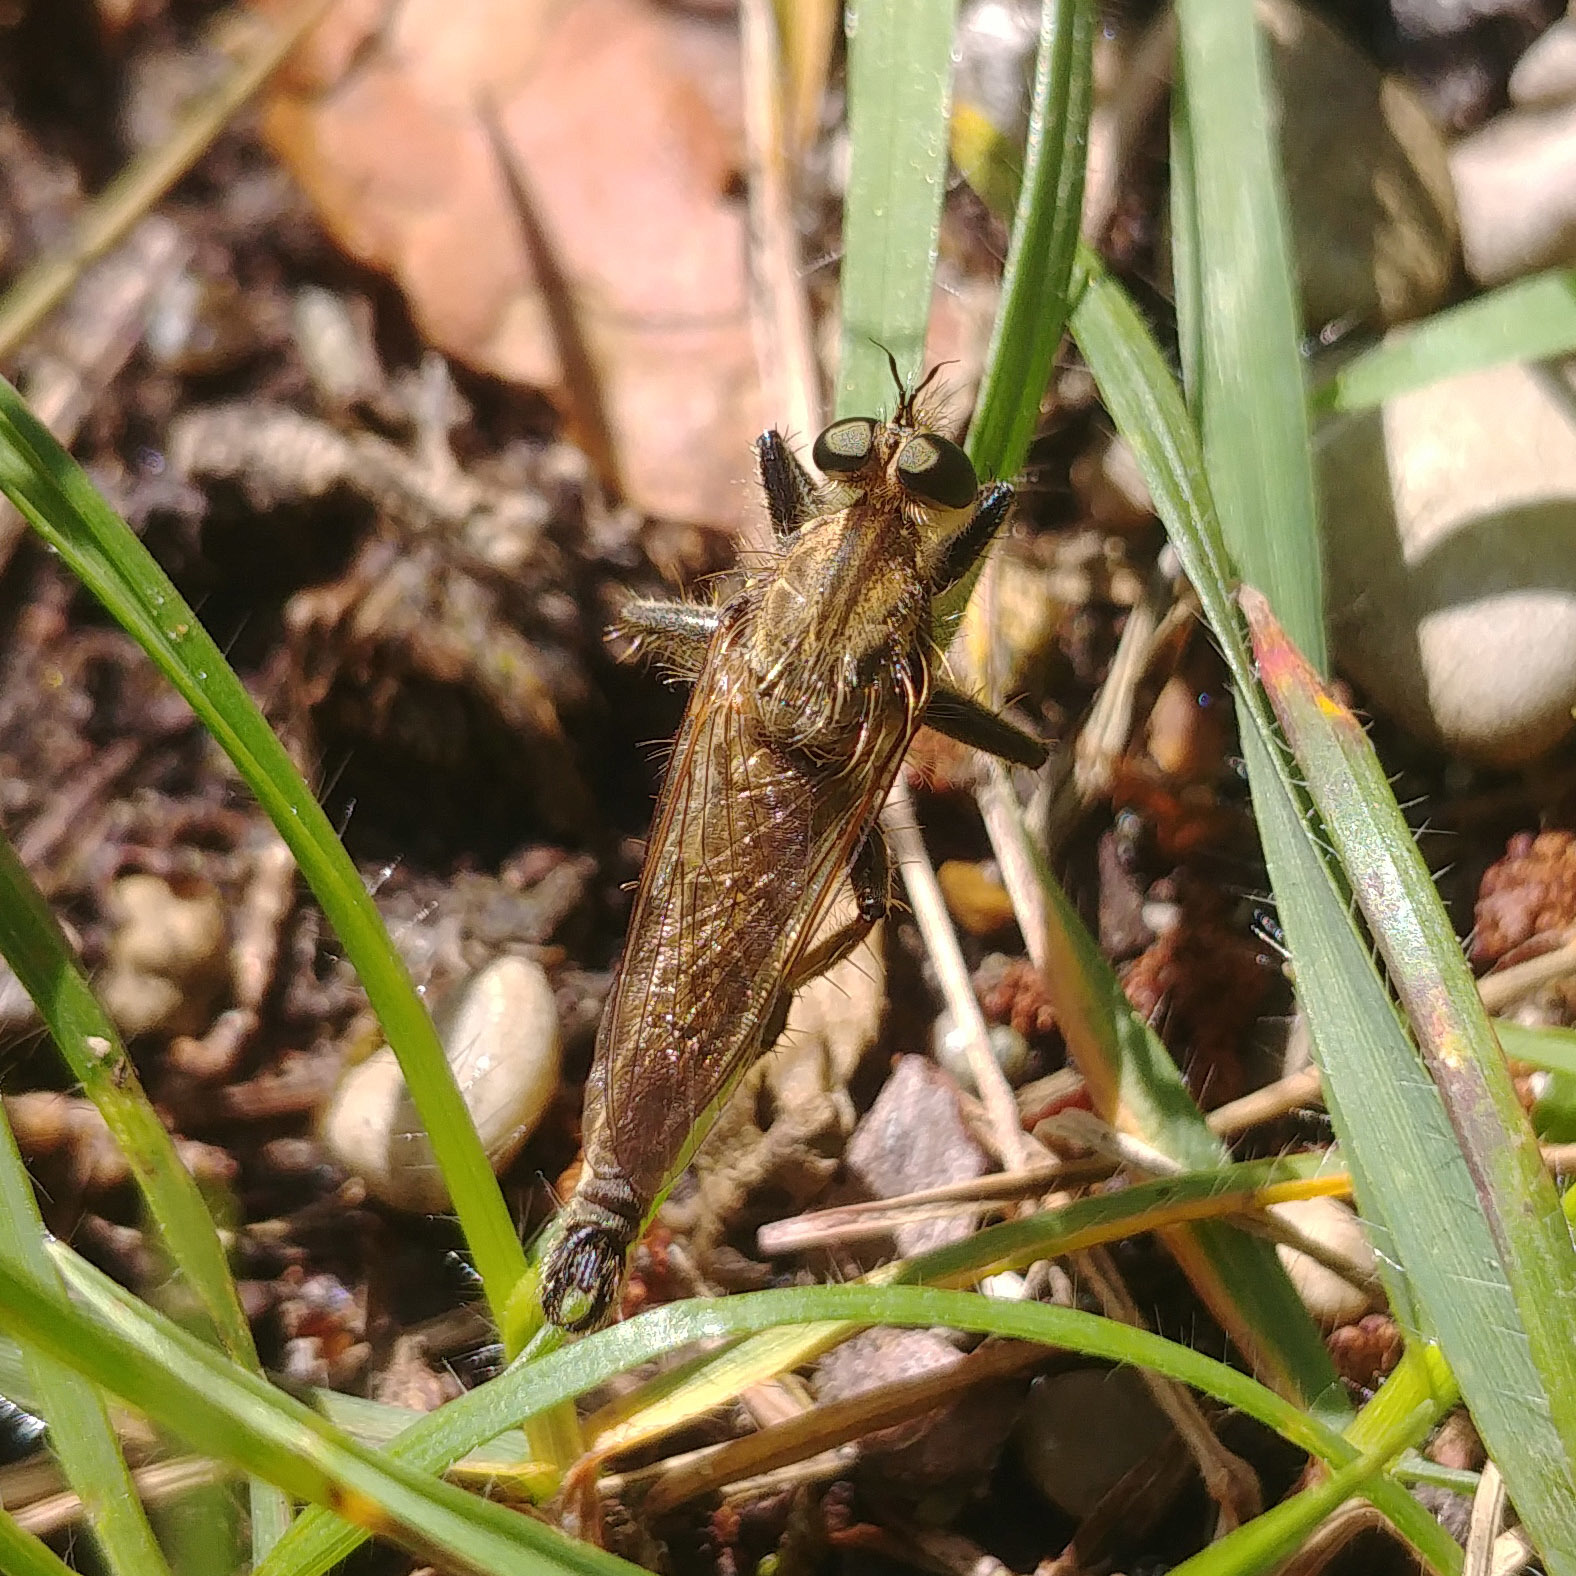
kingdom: Animalia
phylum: Arthropoda
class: Insecta
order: Diptera
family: Asilidae
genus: Machimus
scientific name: Machimus rusticus
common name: Downland robberfly
